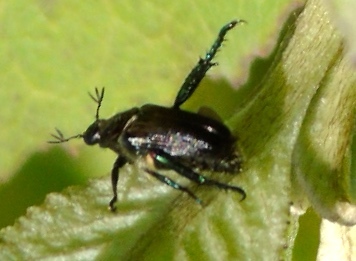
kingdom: Animalia
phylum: Arthropoda
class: Insecta
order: Coleoptera
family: Scarabaeidae
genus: Strigoderma
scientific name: Strigoderma
